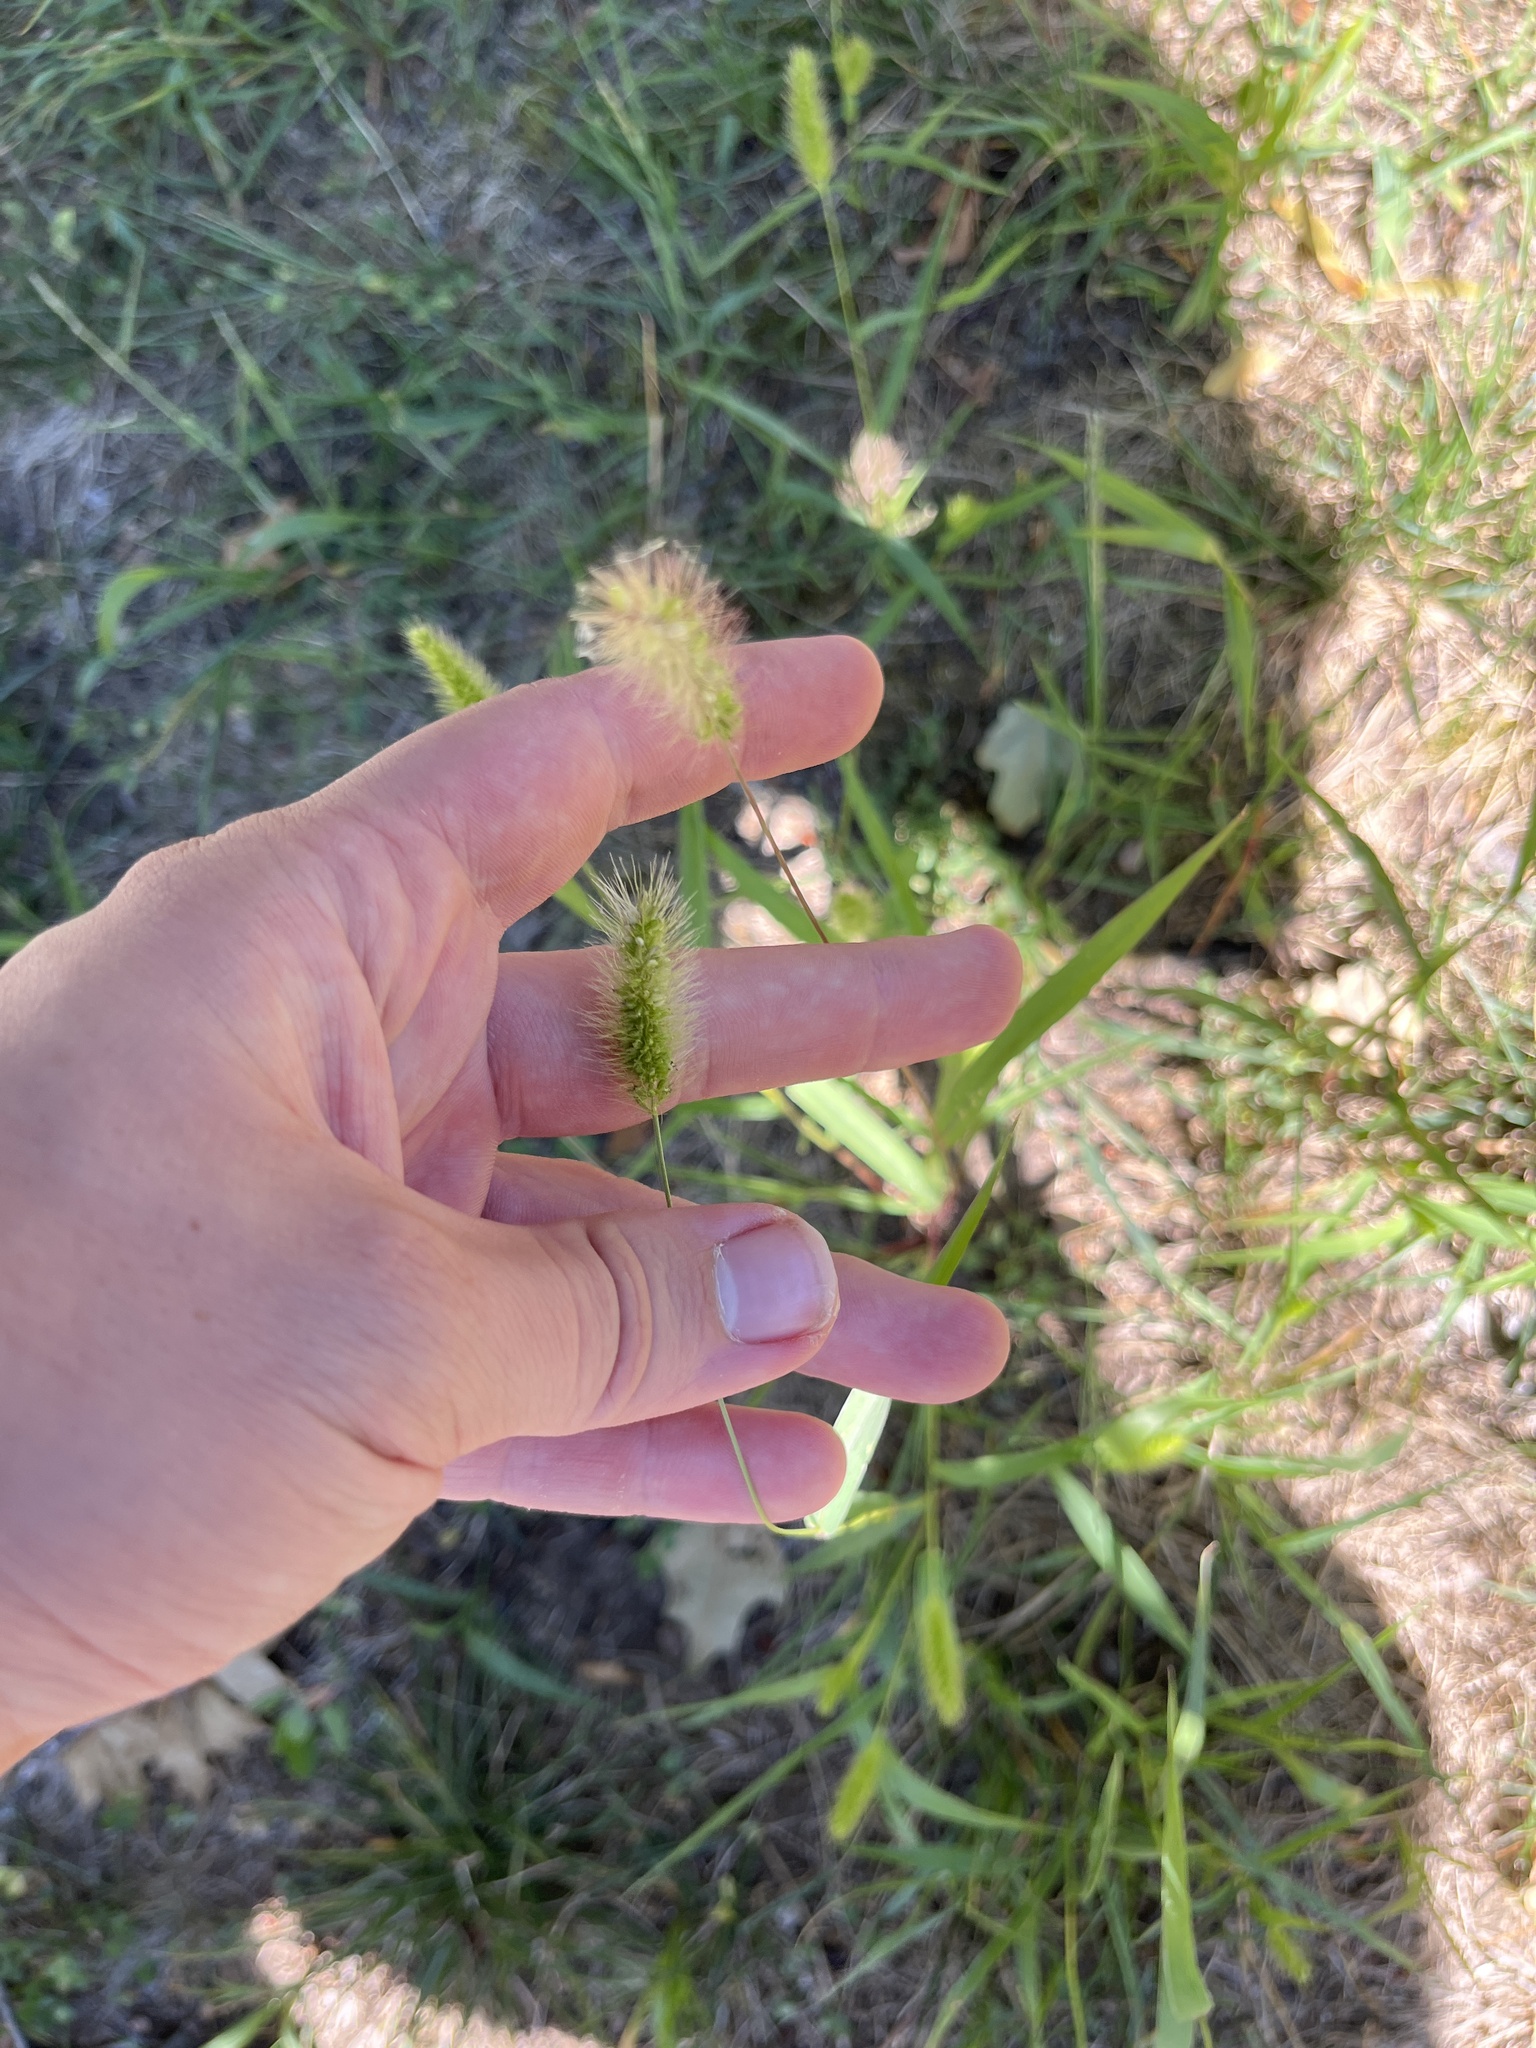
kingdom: Plantae
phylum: Tracheophyta
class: Liliopsida
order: Poales
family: Poaceae
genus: Setaria
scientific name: Setaria viridis
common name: Green bristlegrass
